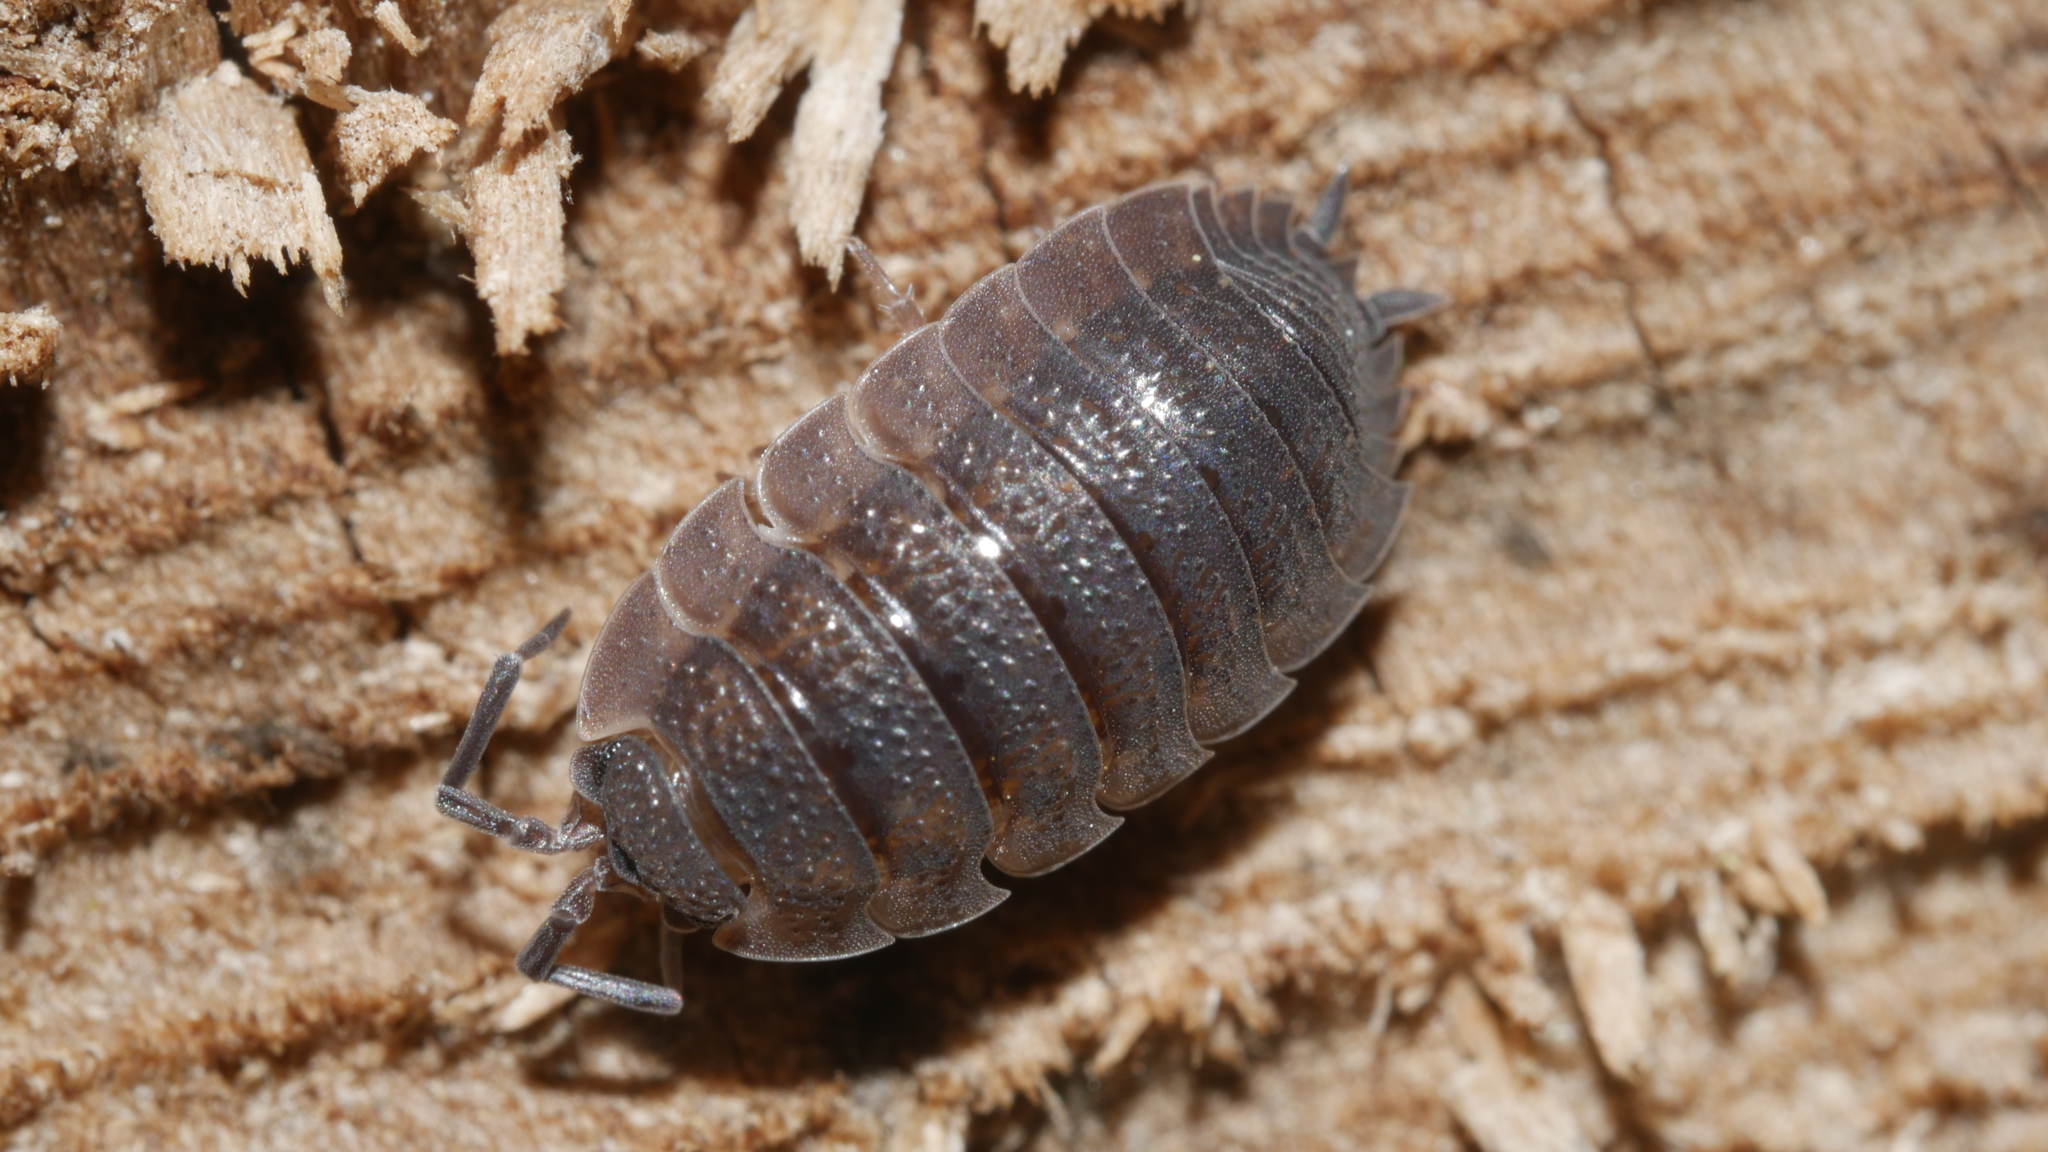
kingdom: Animalia
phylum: Arthropoda
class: Malacostraca
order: Isopoda
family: Porcellionidae
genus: Porcellio
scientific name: Porcellio scaber
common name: Common rough woodlouse
